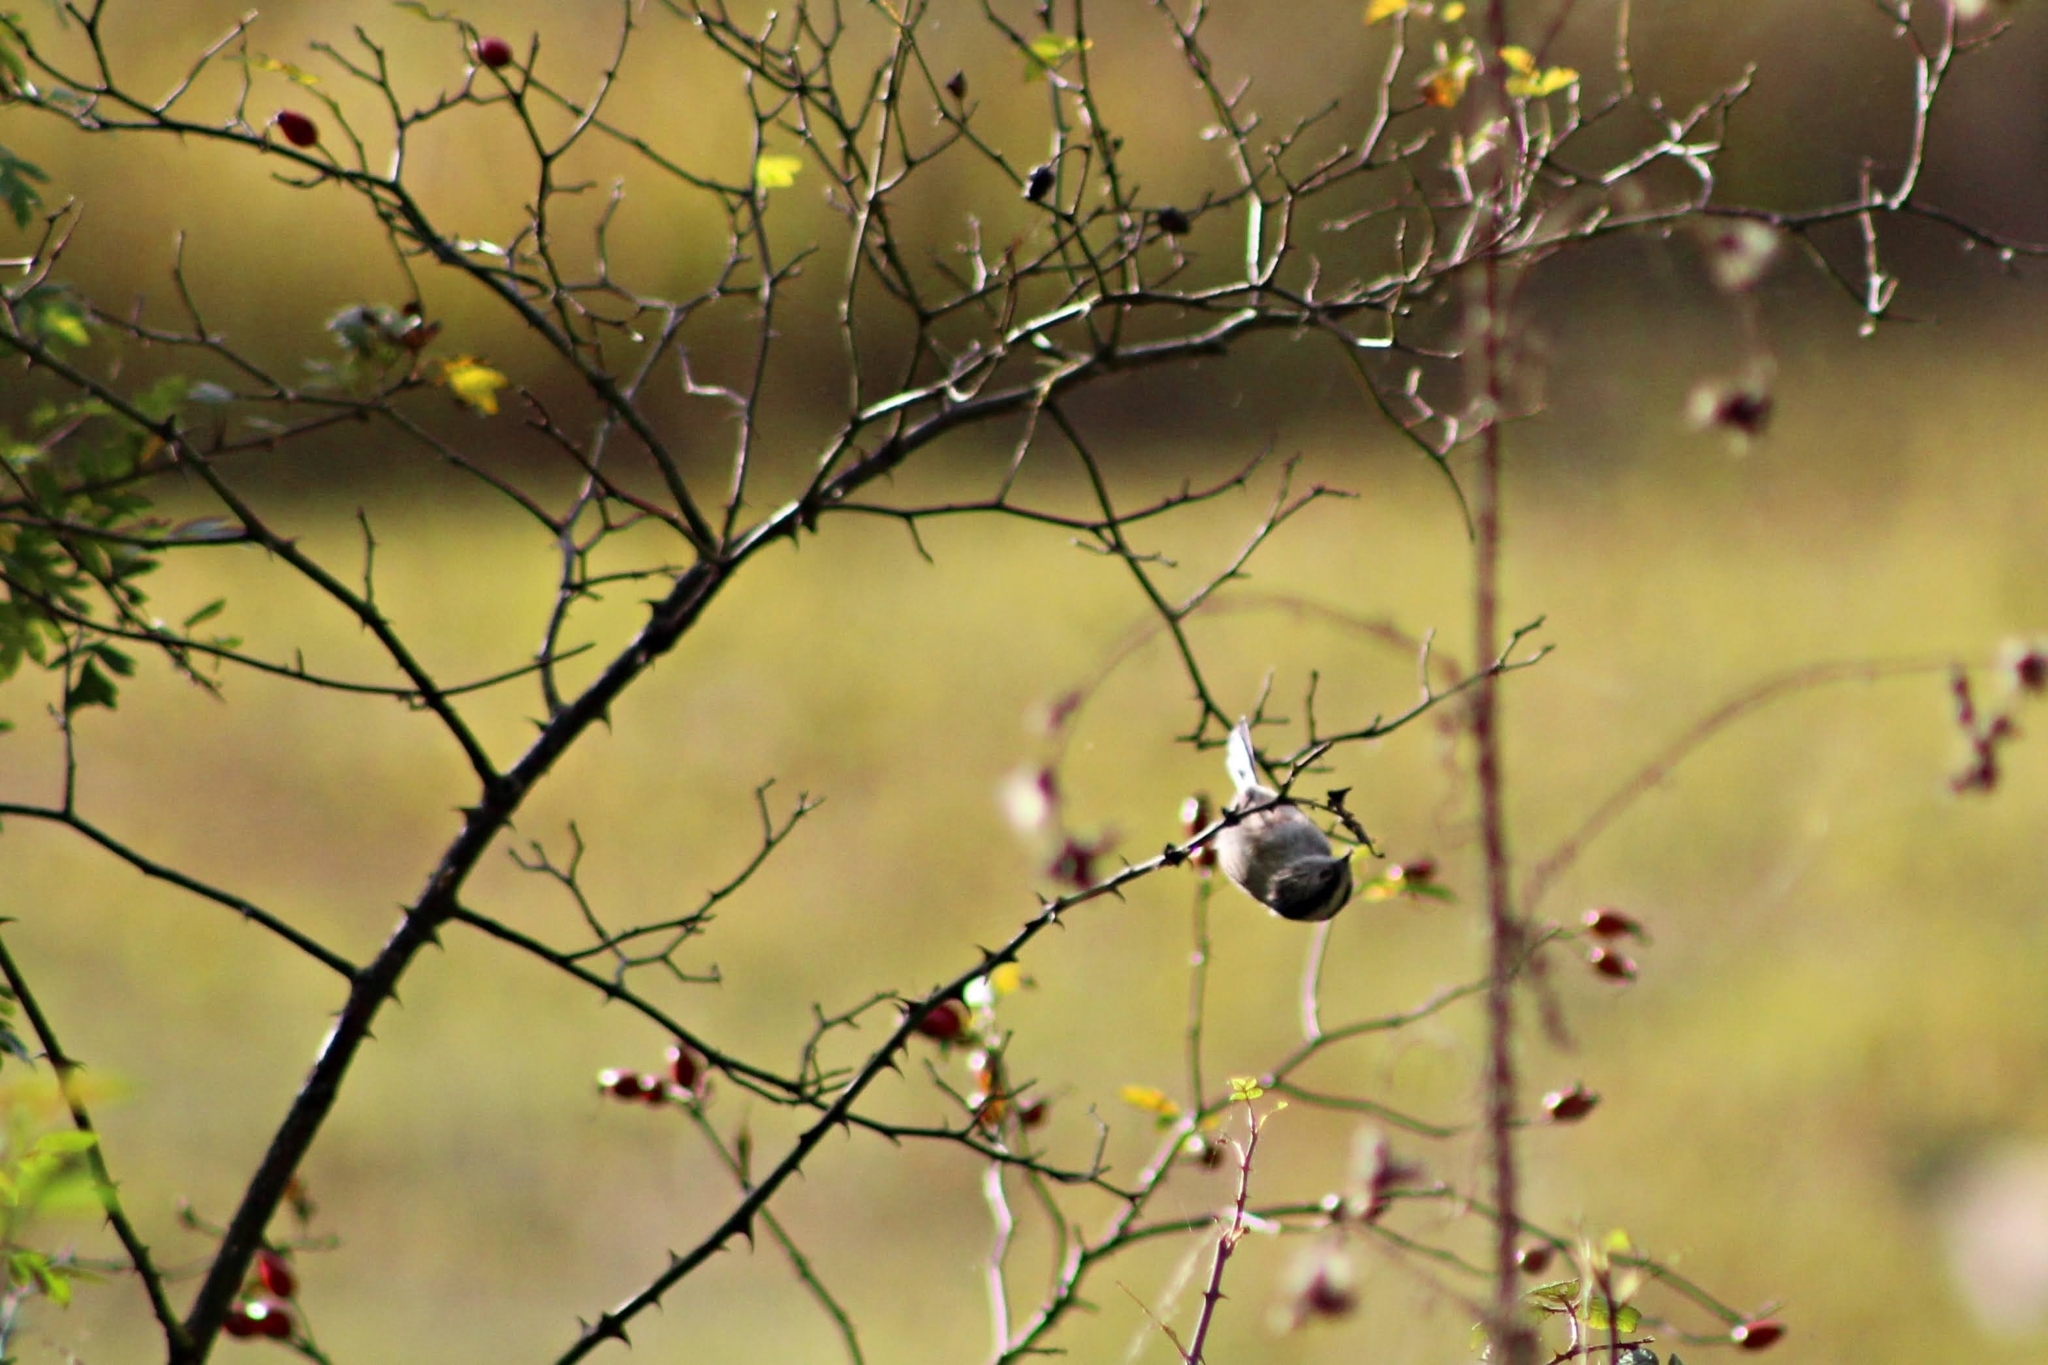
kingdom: Animalia
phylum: Chordata
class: Aves
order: Passeriformes
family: Aegithalidae
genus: Aegithalos
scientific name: Aegithalos caudatus
